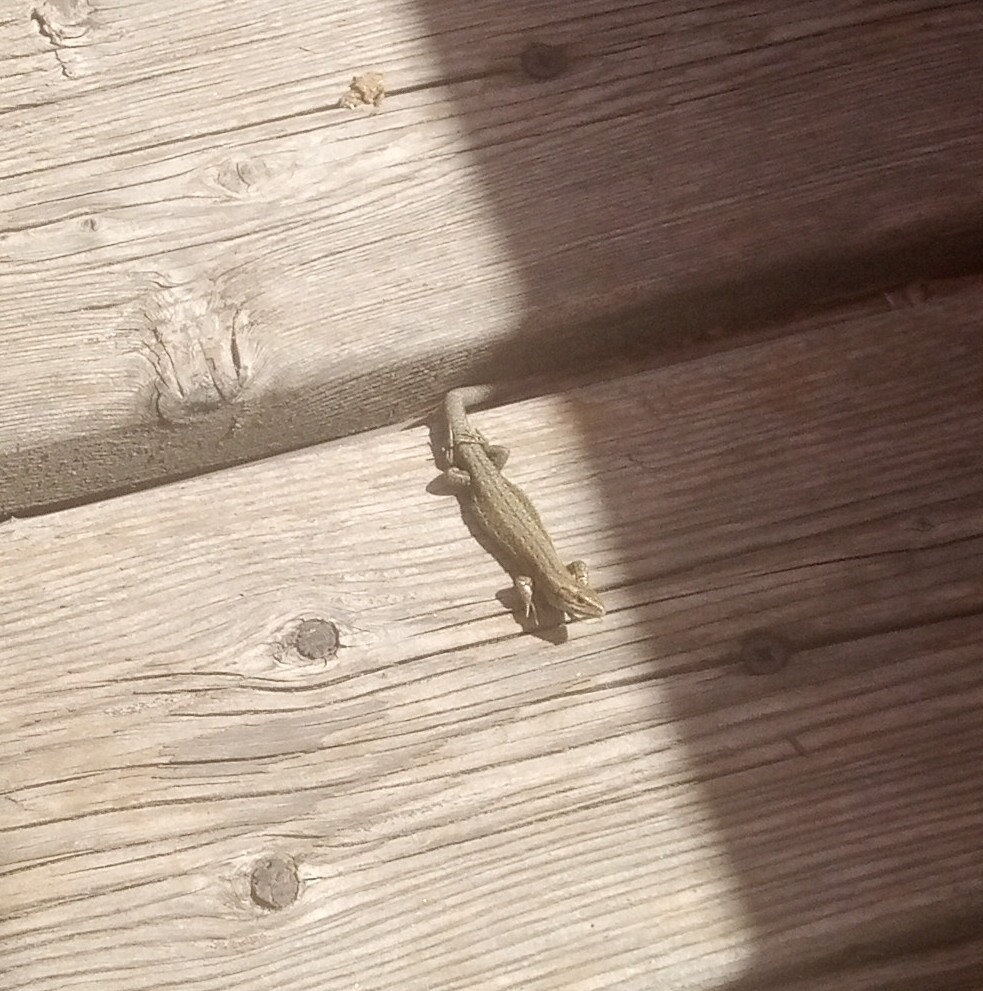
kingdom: Animalia
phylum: Chordata
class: Squamata
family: Lacertidae
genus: Zootoca
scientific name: Zootoca vivipara
